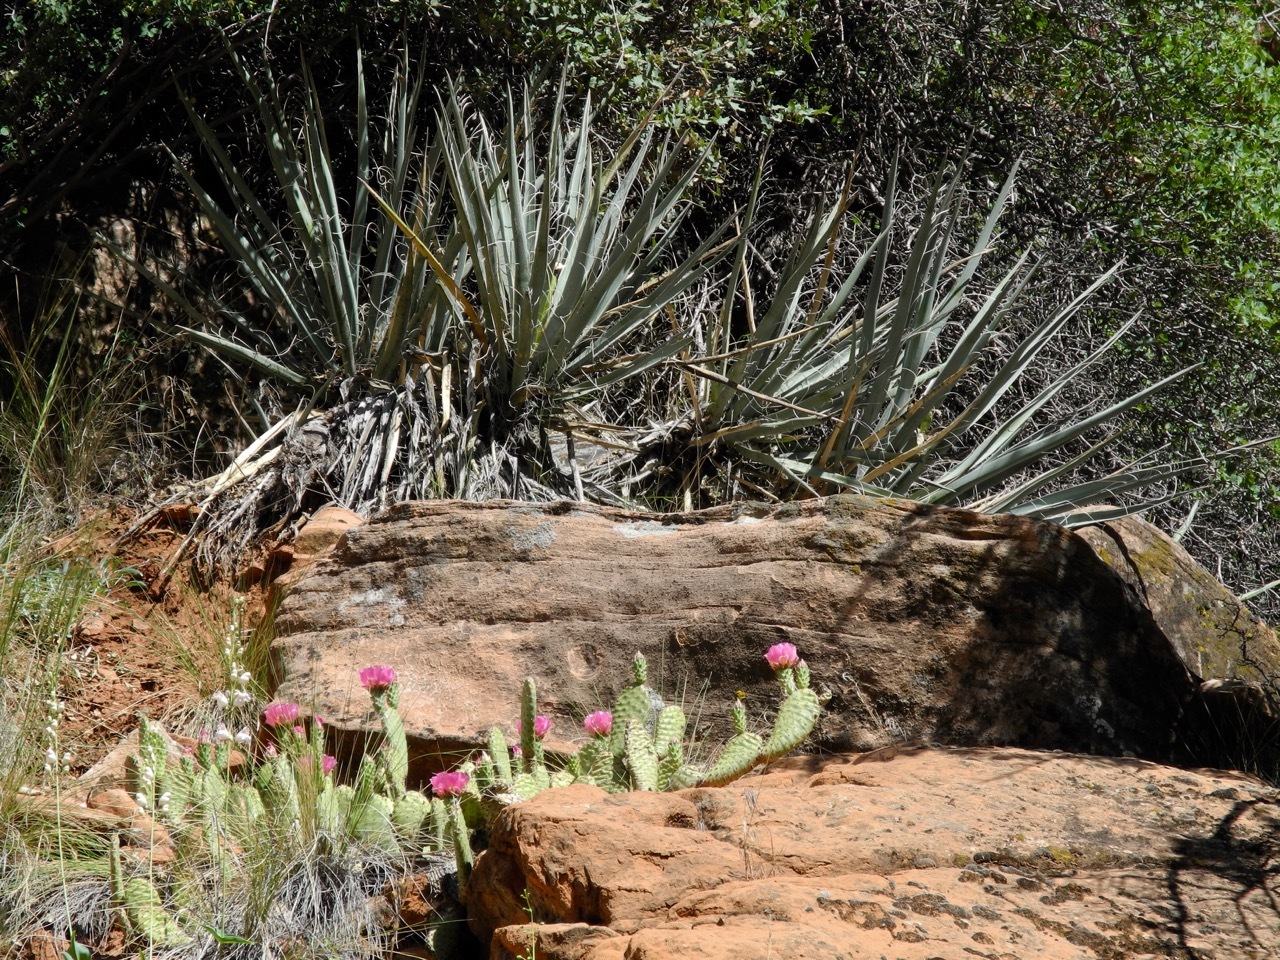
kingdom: Plantae
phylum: Tracheophyta
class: Liliopsida
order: Asparagales
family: Asparagaceae
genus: Yucca
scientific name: Yucca baccata
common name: Banana yucca
